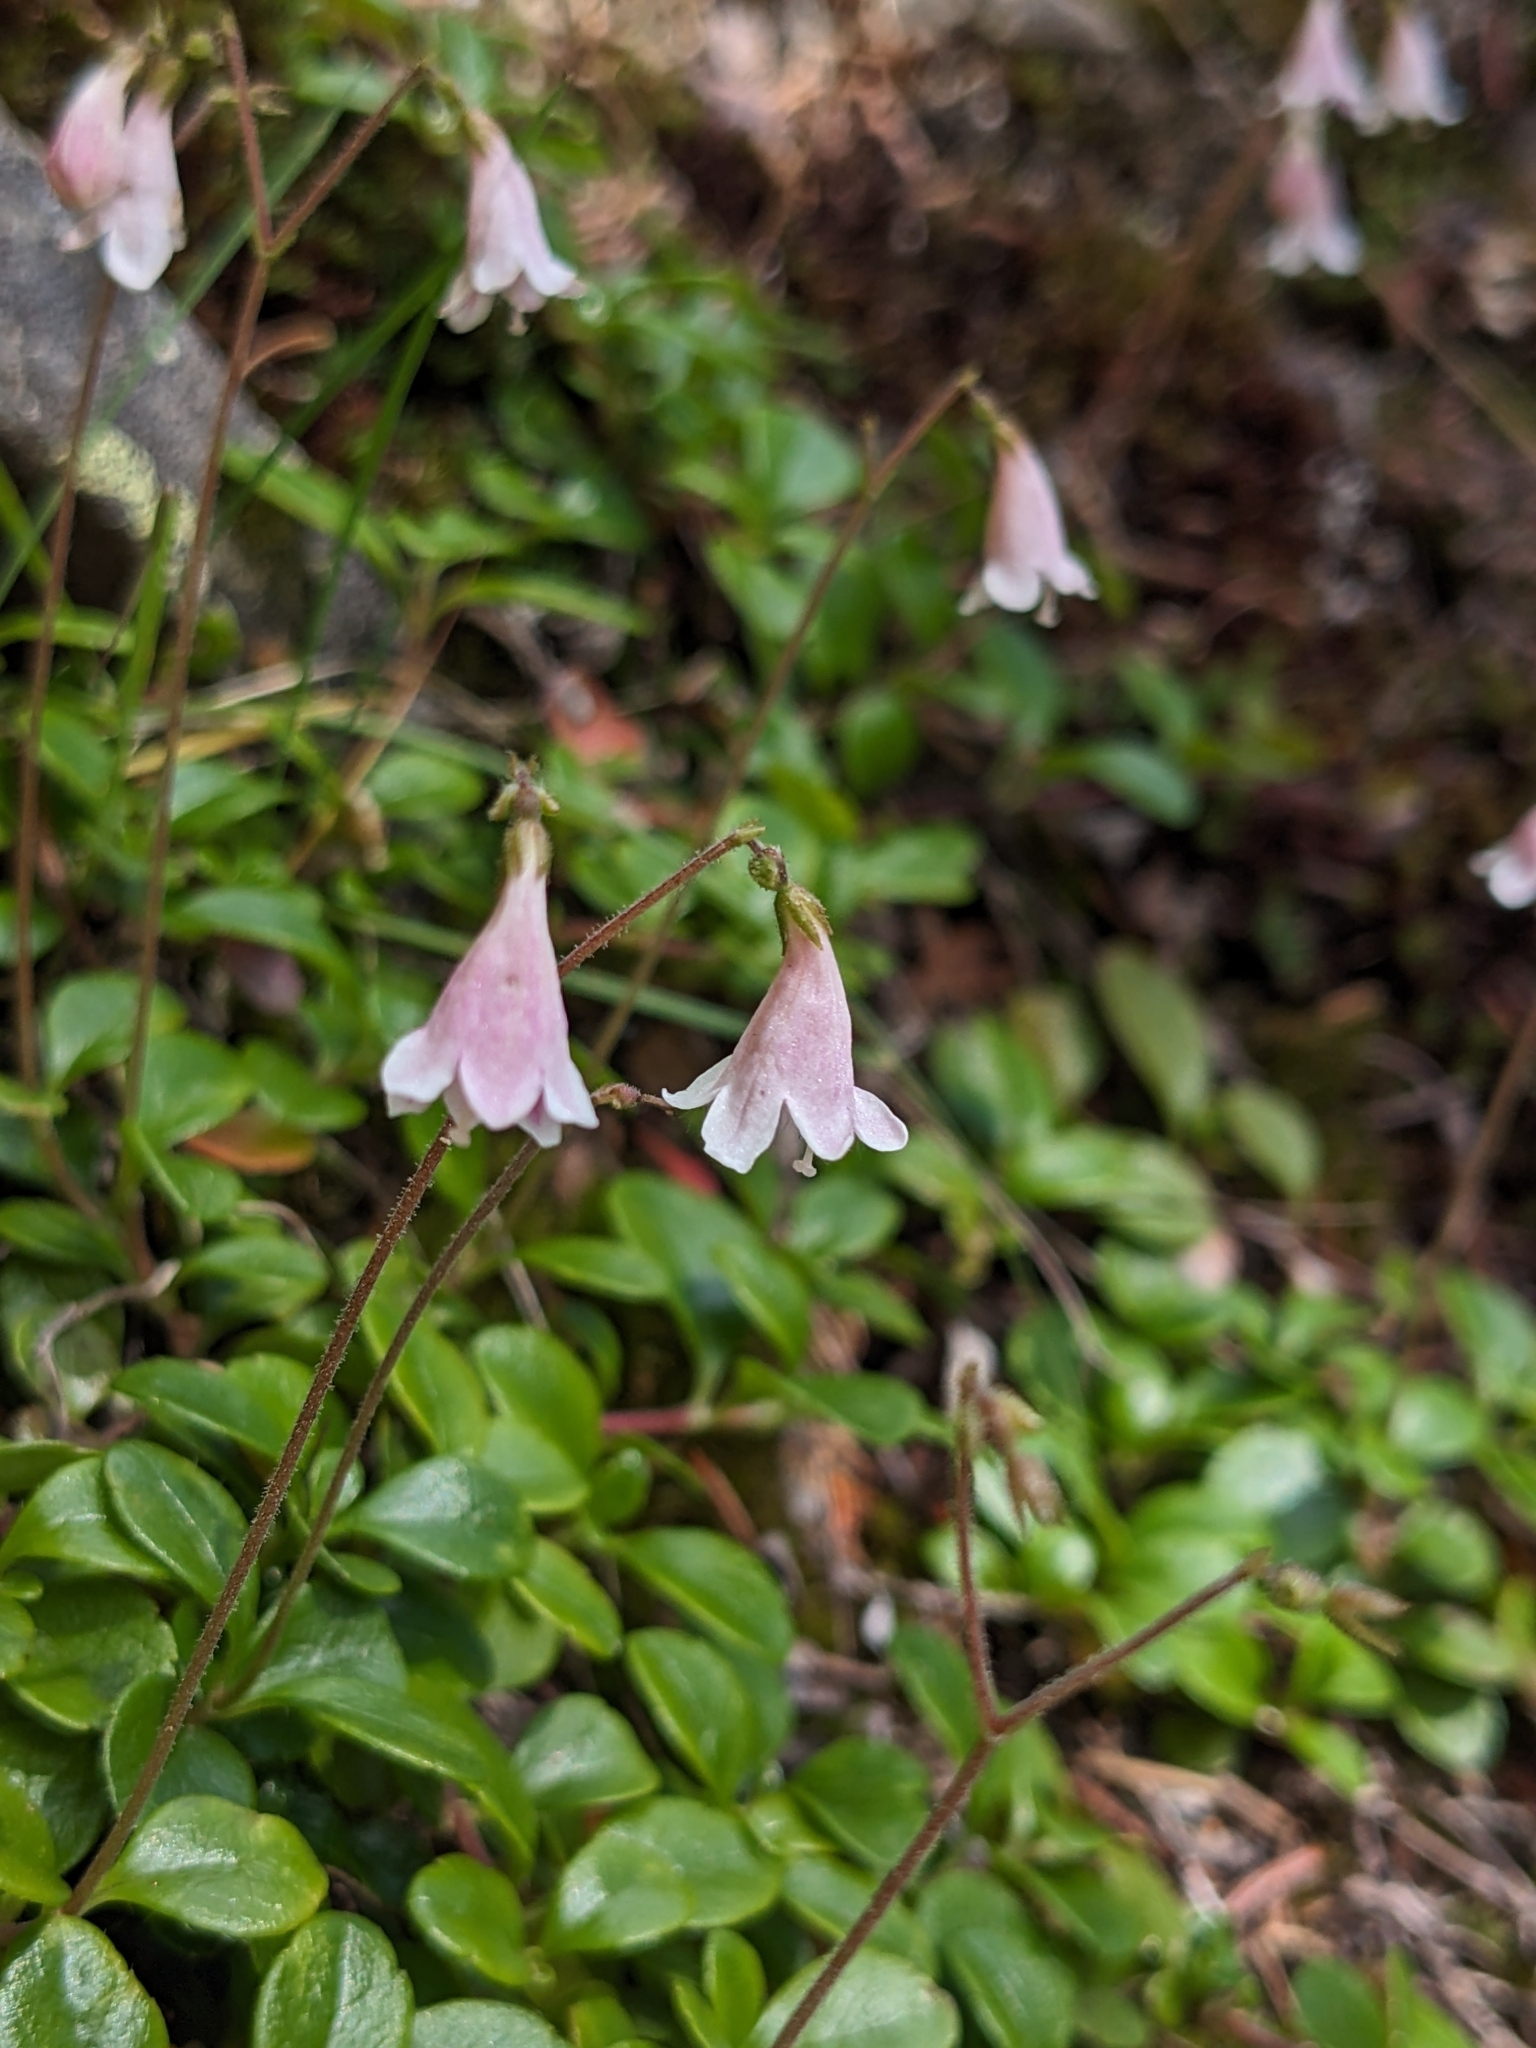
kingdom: Plantae
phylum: Tracheophyta
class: Magnoliopsida
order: Dipsacales
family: Caprifoliaceae
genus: Linnaea
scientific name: Linnaea borealis
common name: Twinflower
